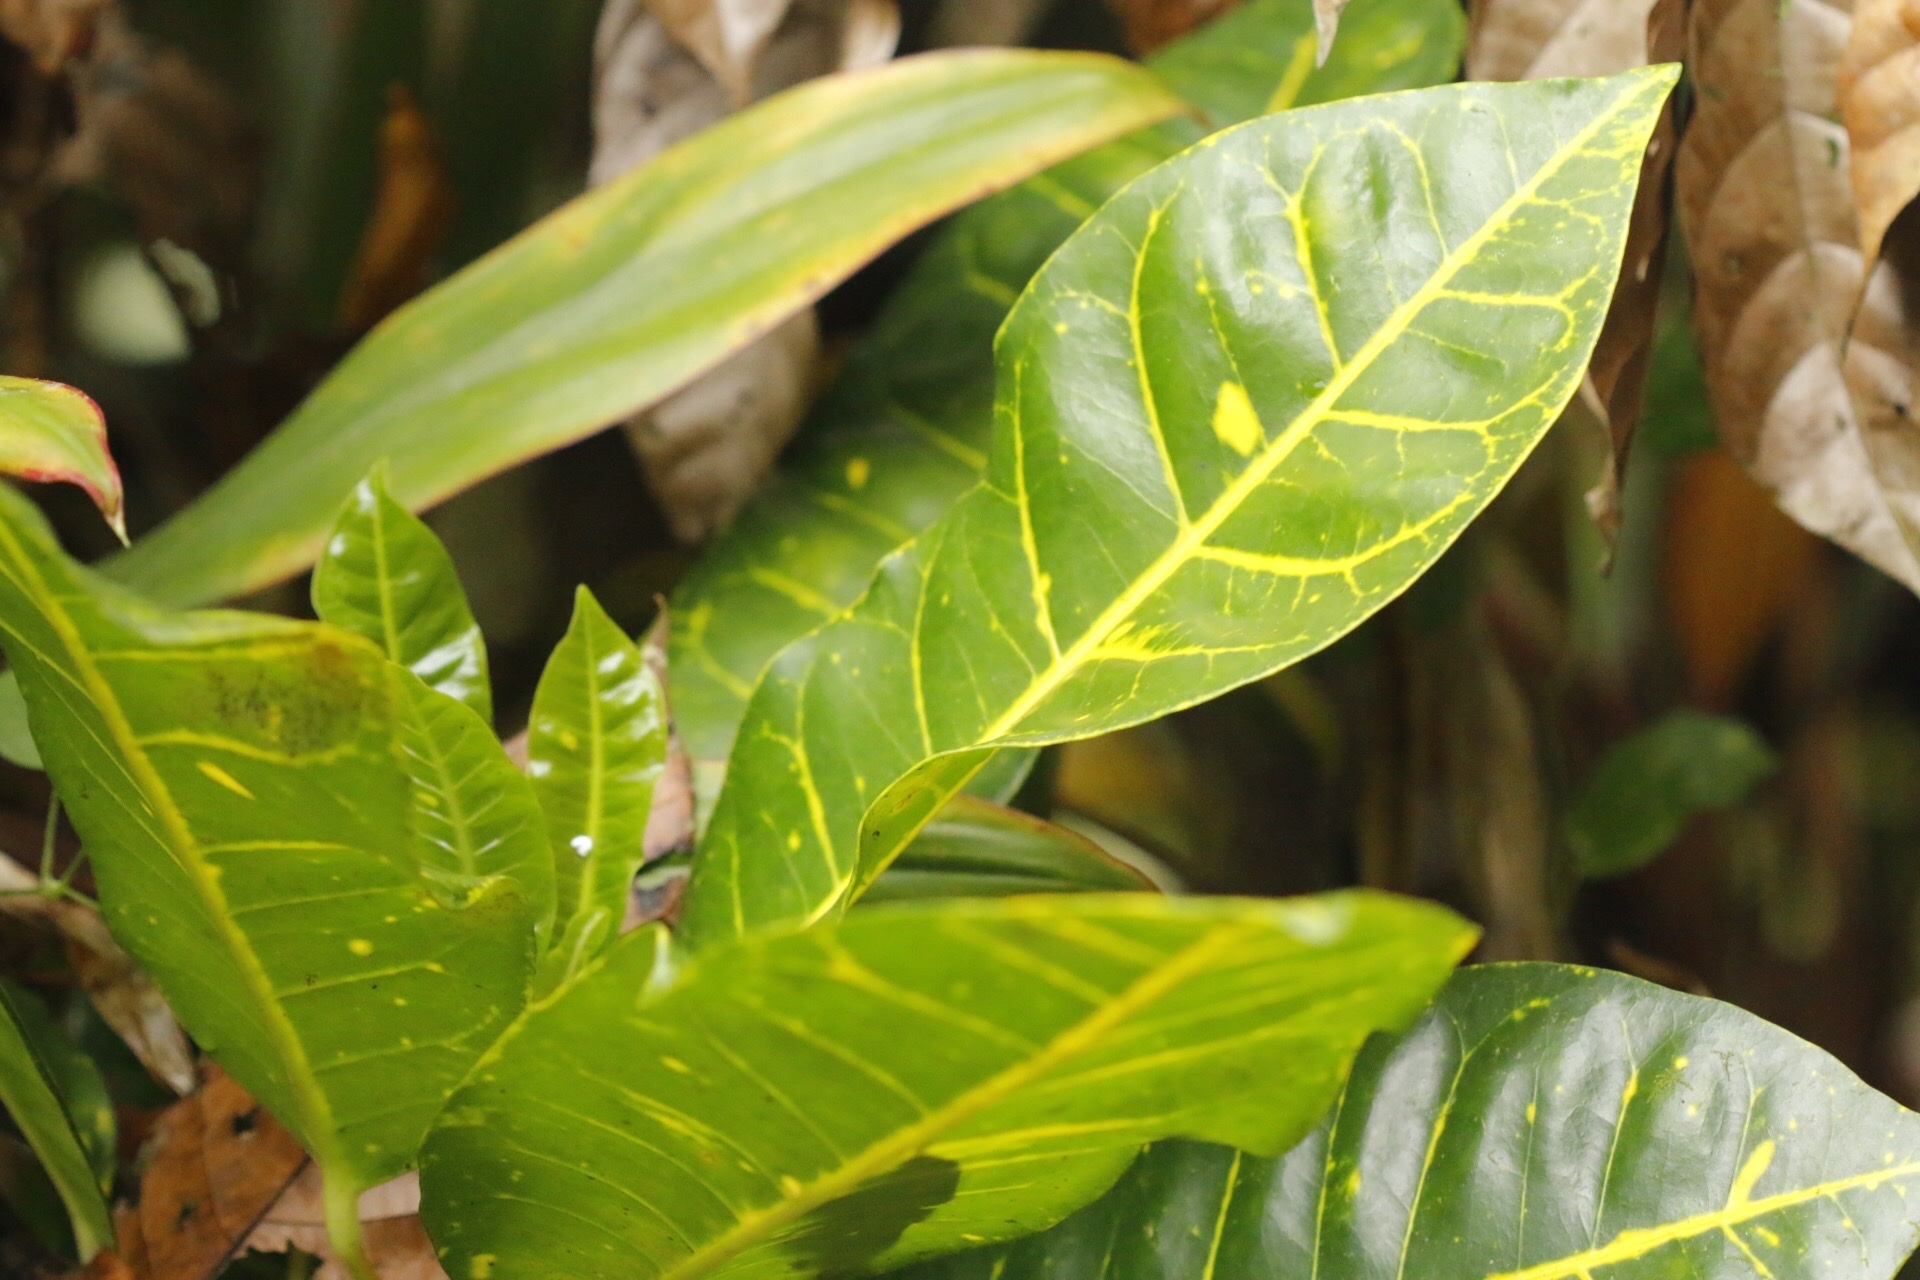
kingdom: Plantae
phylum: Tracheophyta
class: Magnoliopsida
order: Malpighiales
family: Euphorbiaceae
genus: Codiaeum
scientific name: Codiaeum variegatum
